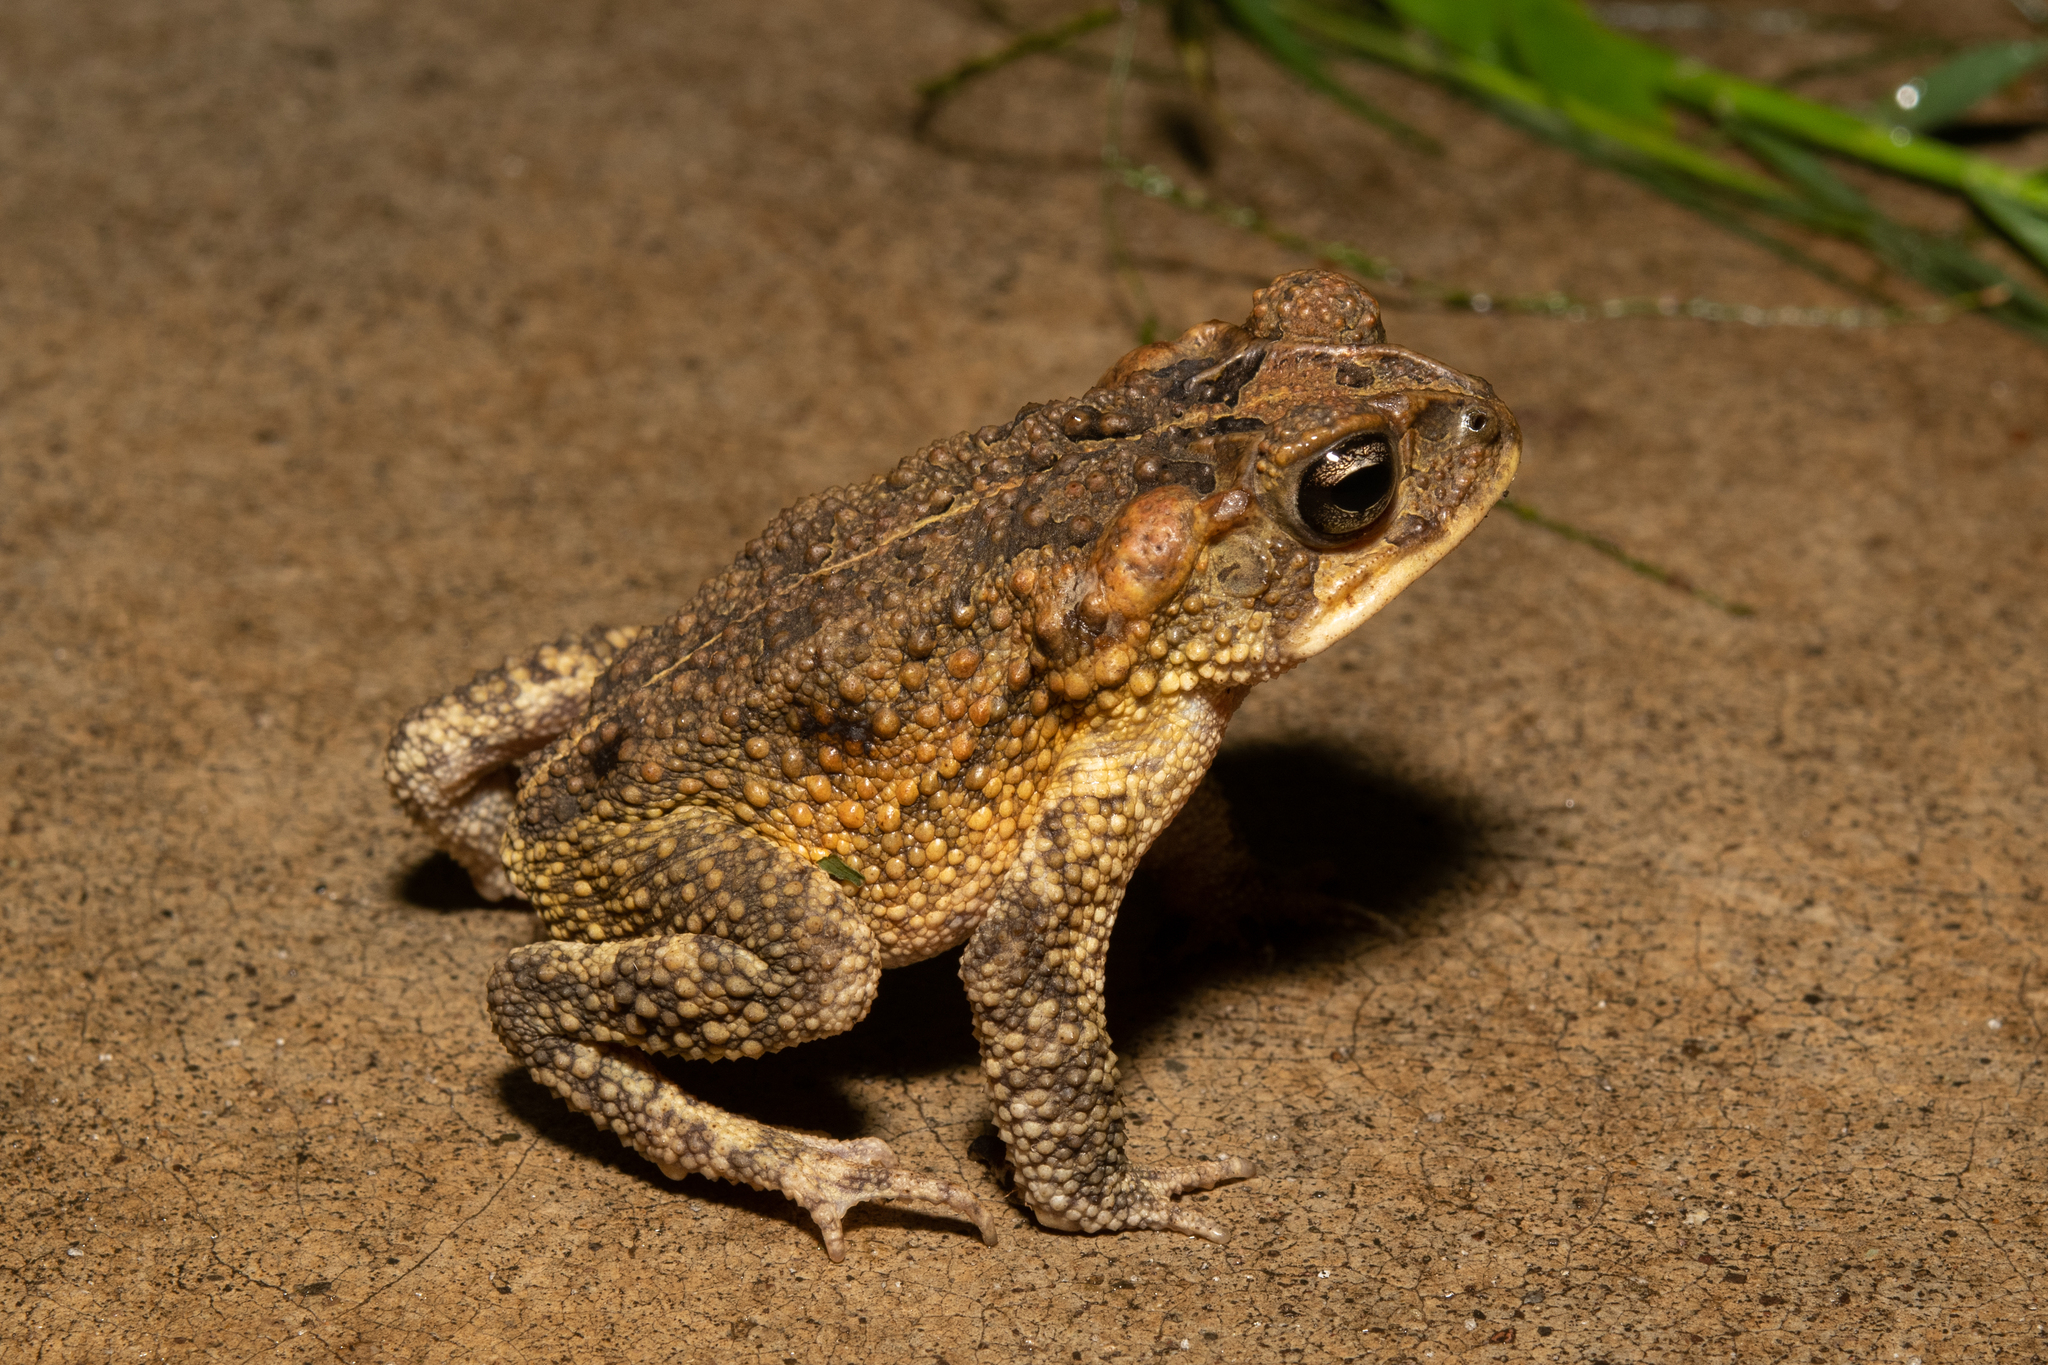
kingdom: Animalia
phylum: Chordata
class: Amphibia
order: Anura
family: Bufonidae
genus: Incilius
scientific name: Incilius porteri
